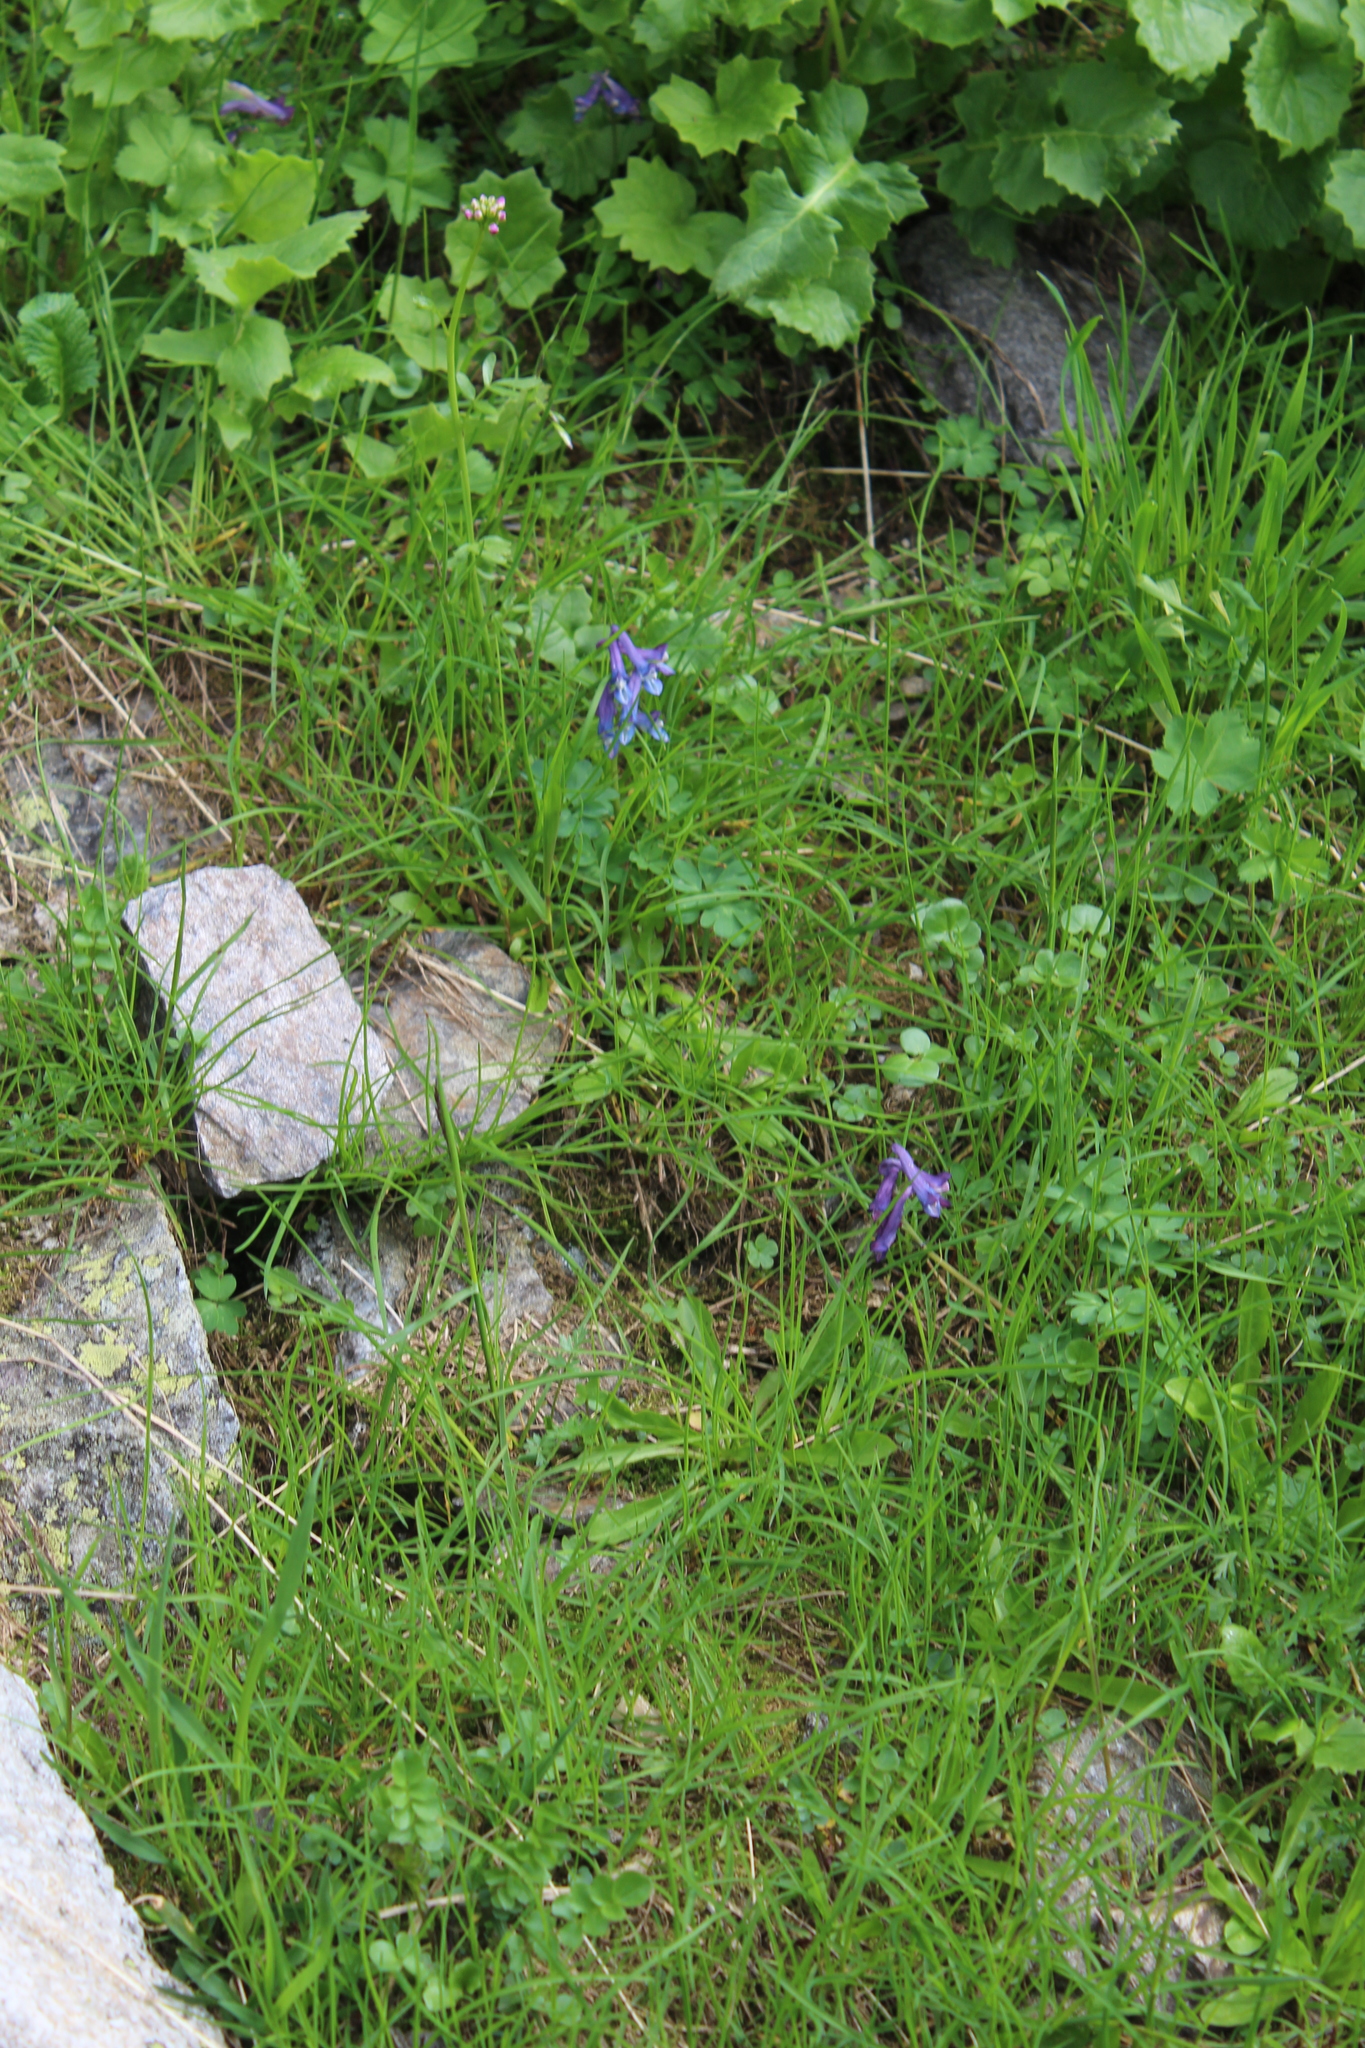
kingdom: Plantae
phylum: Tracheophyta
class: Magnoliopsida
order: Ranunculales
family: Papaveraceae
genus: Corydalis
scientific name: Corydalis emanueli
